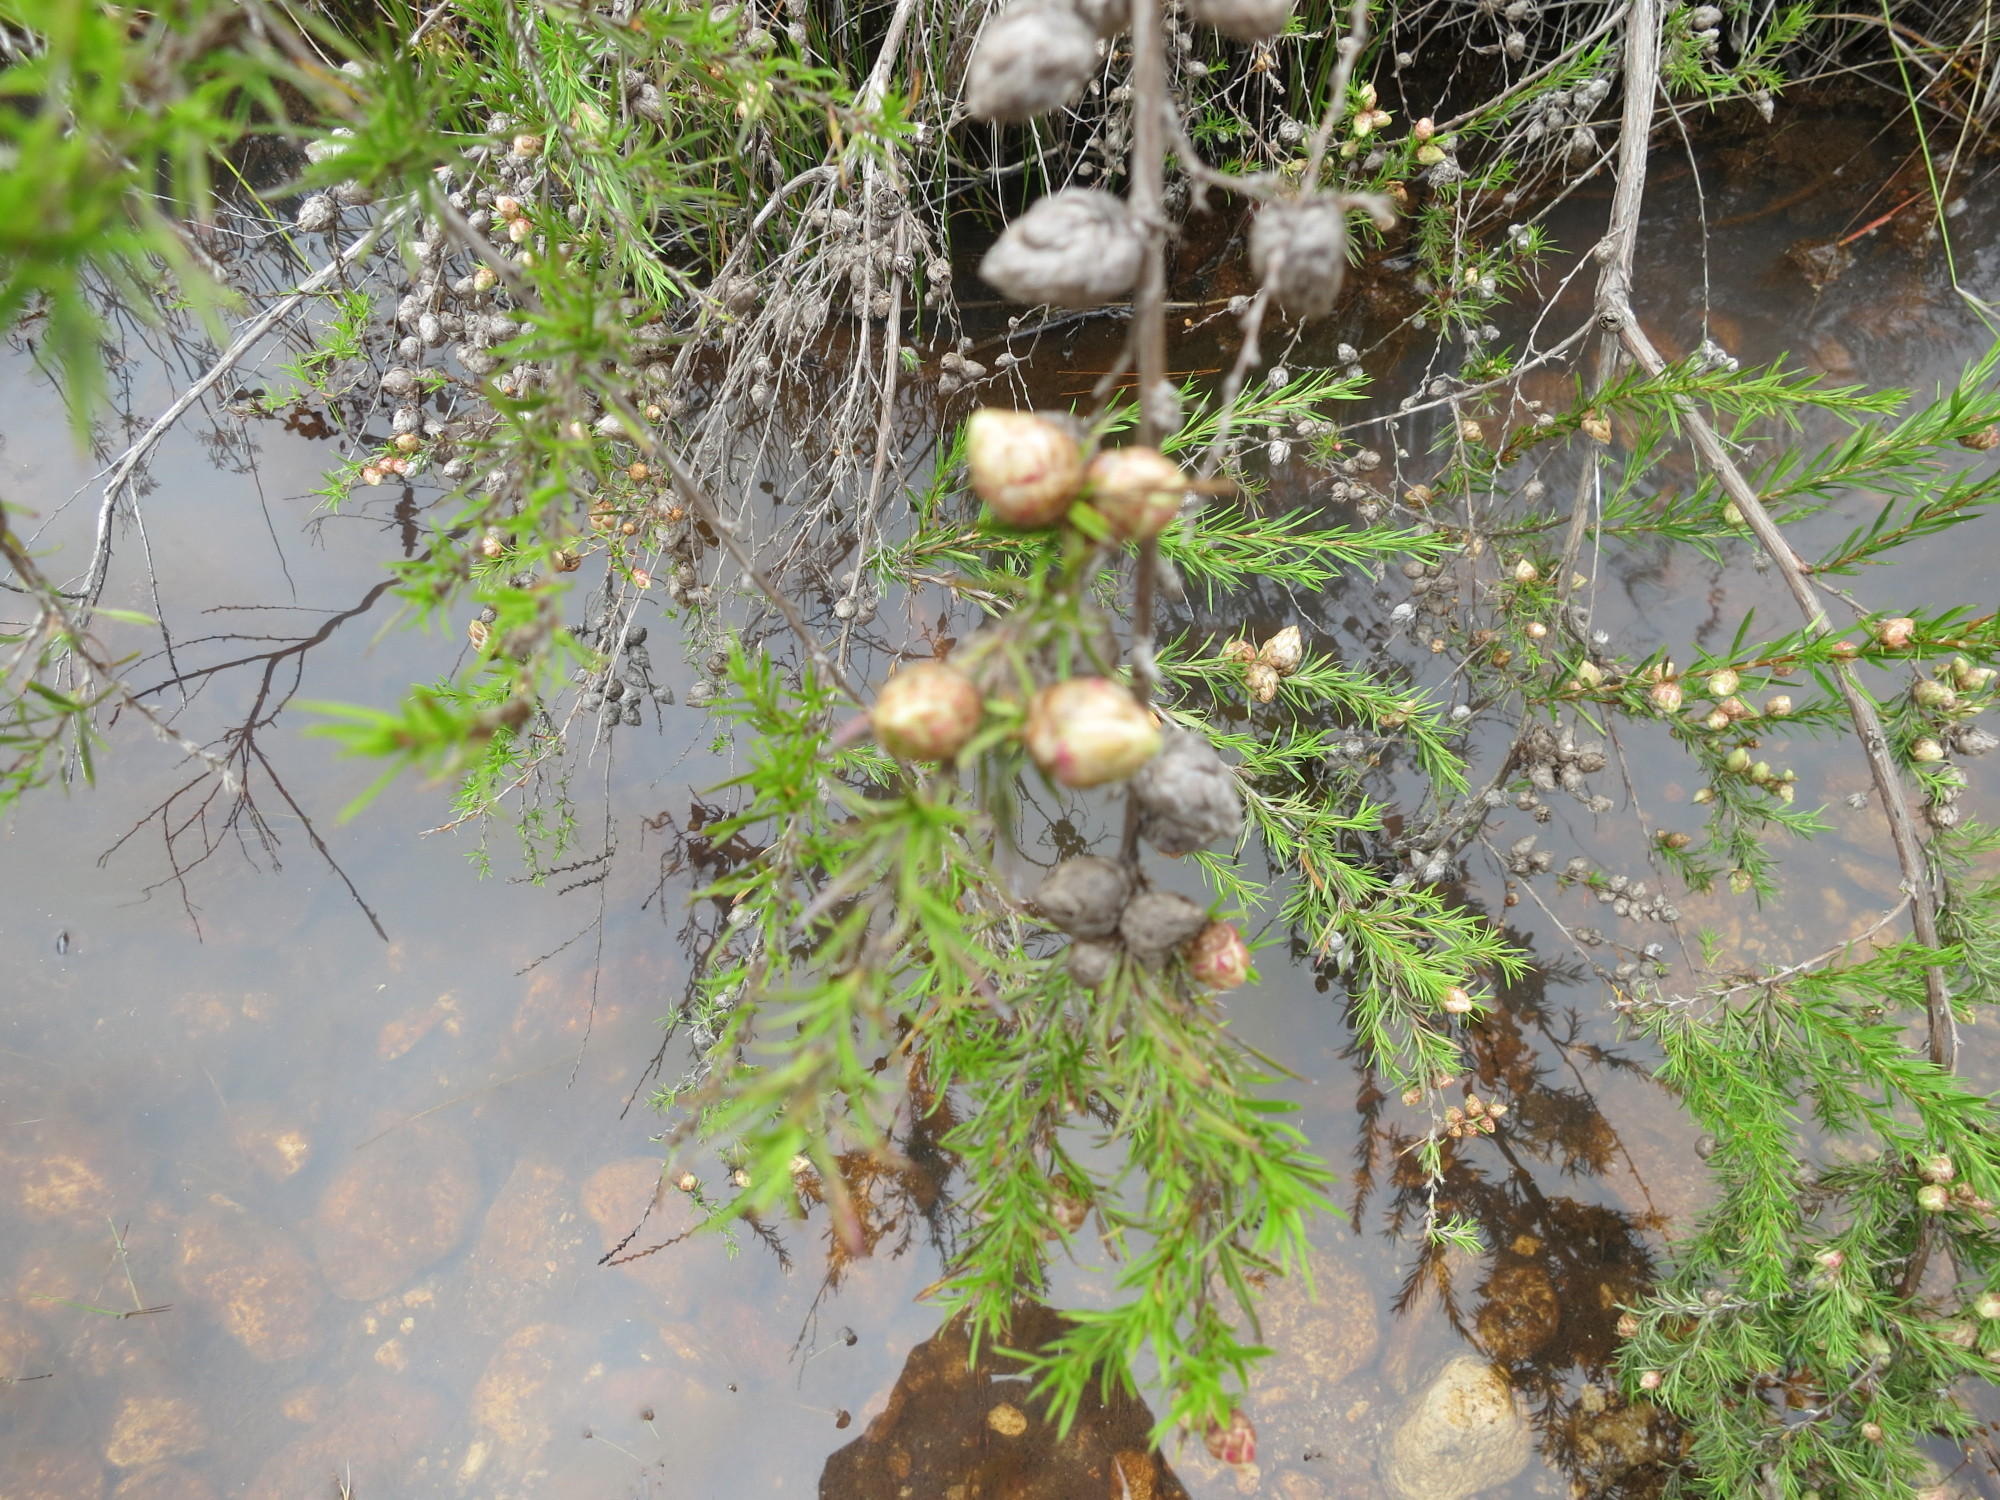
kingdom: Plantae
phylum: Tracheophyta
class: Magnoliopsida
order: Rosales
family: Rosaceae
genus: Cliffortia
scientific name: Cliffortia strobilifera
